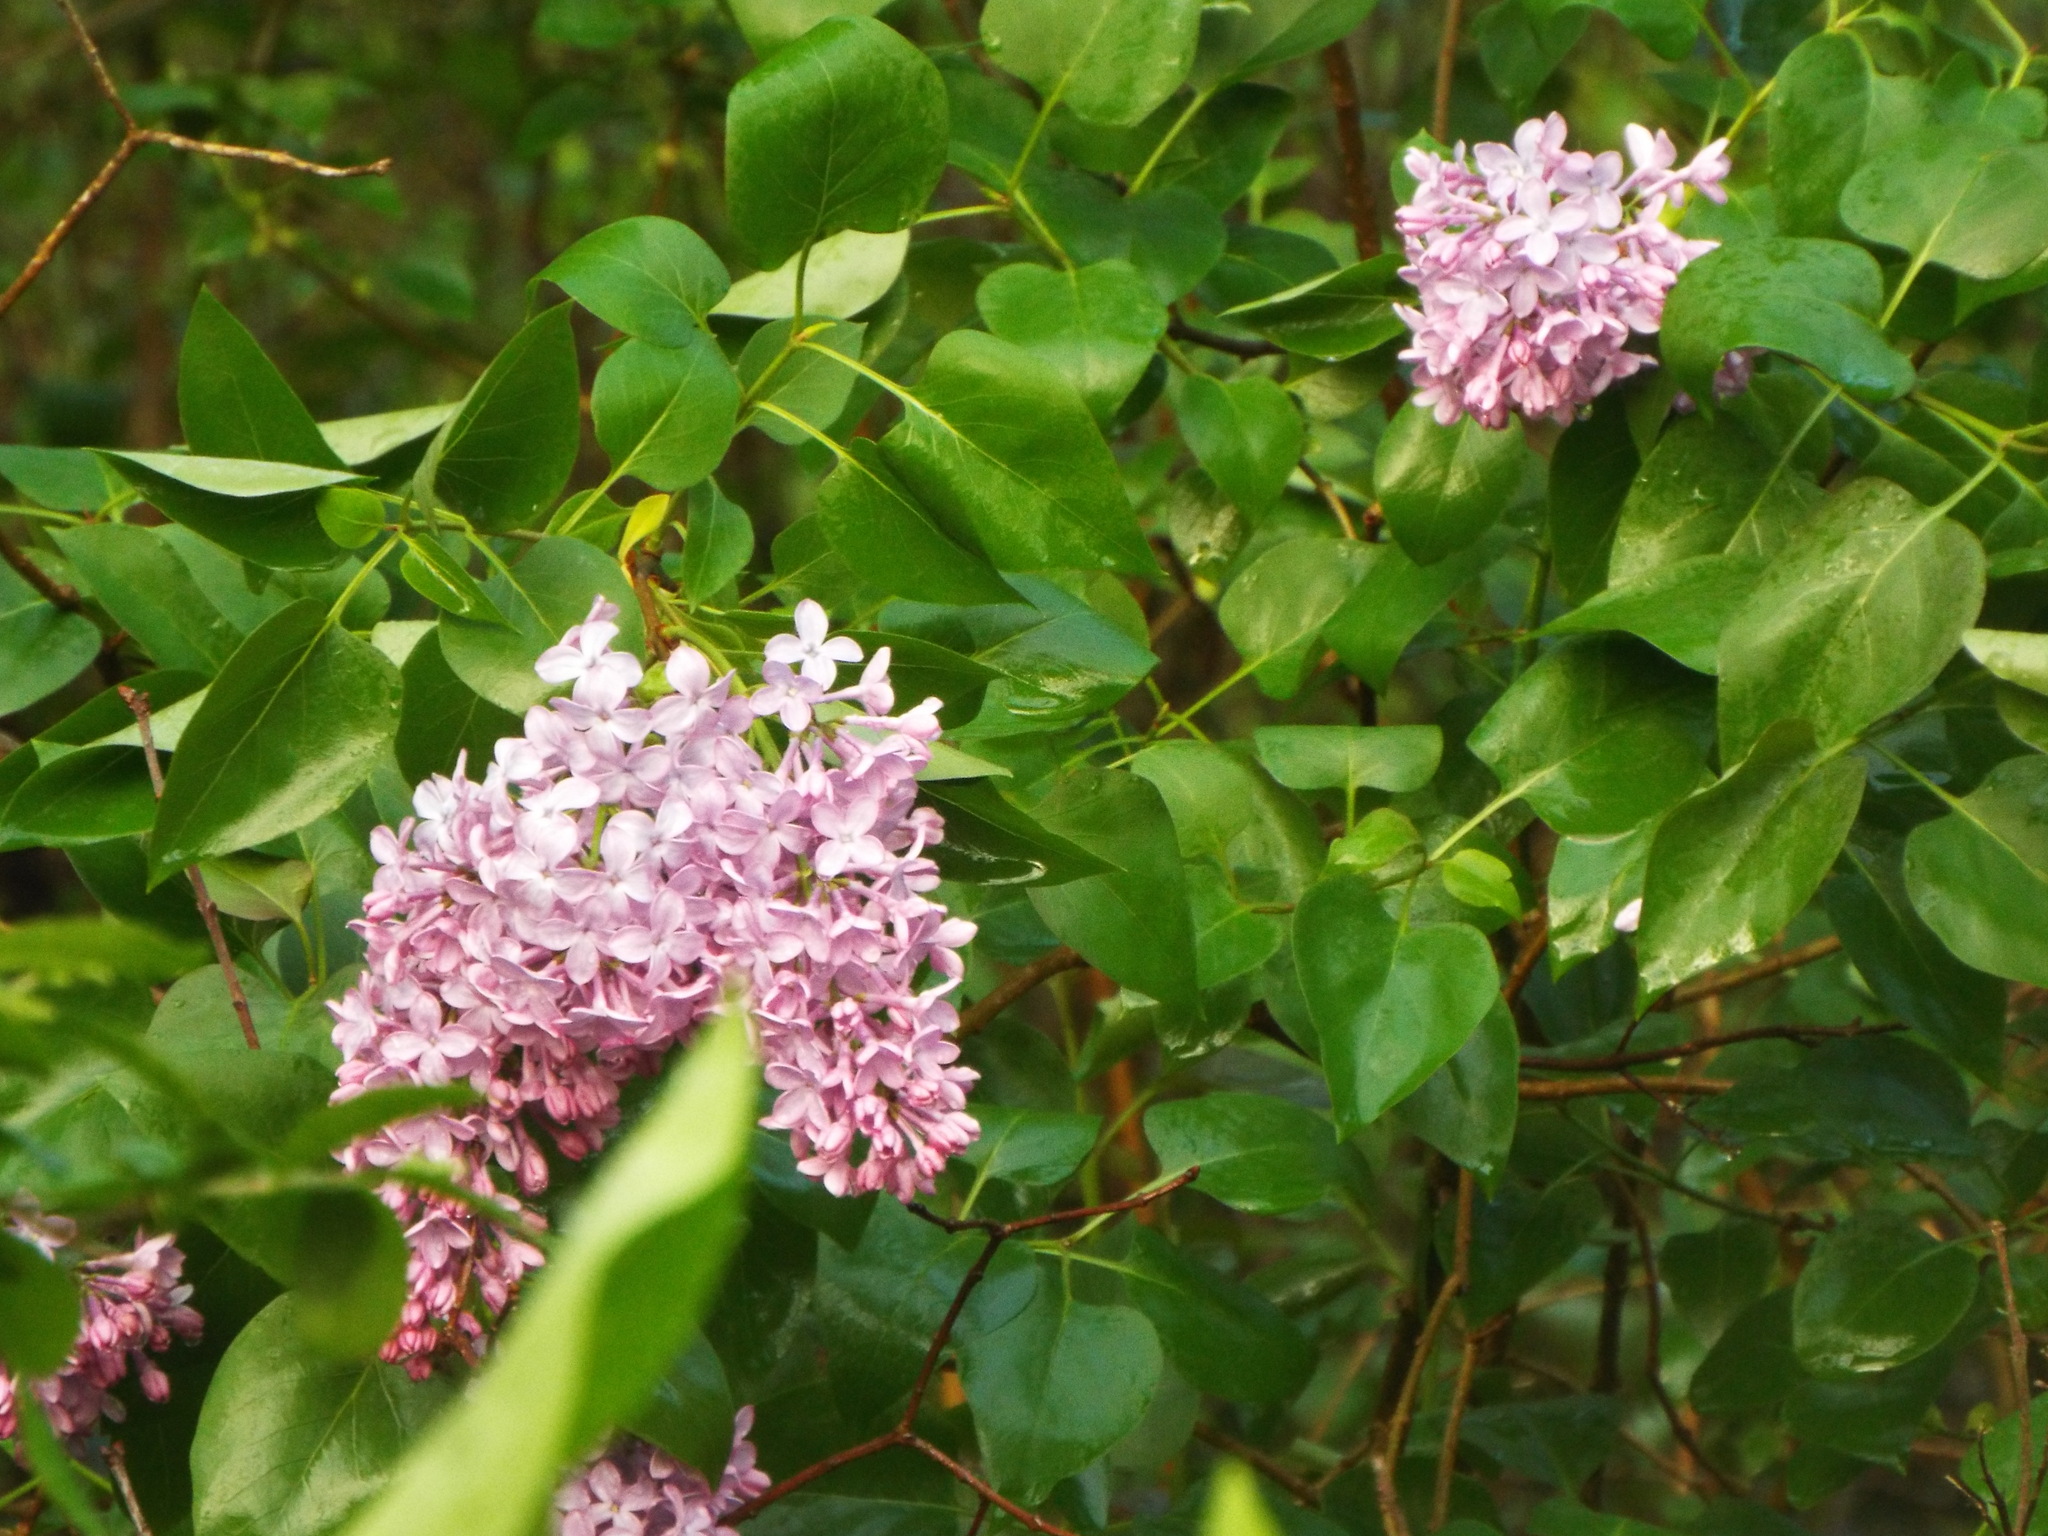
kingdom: Plantae
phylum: Tracheophyta
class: Magnoliopsida
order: Lamiales
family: Oleaceae
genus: Syringa
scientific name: Syringa vulgaris
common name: Common lilac
